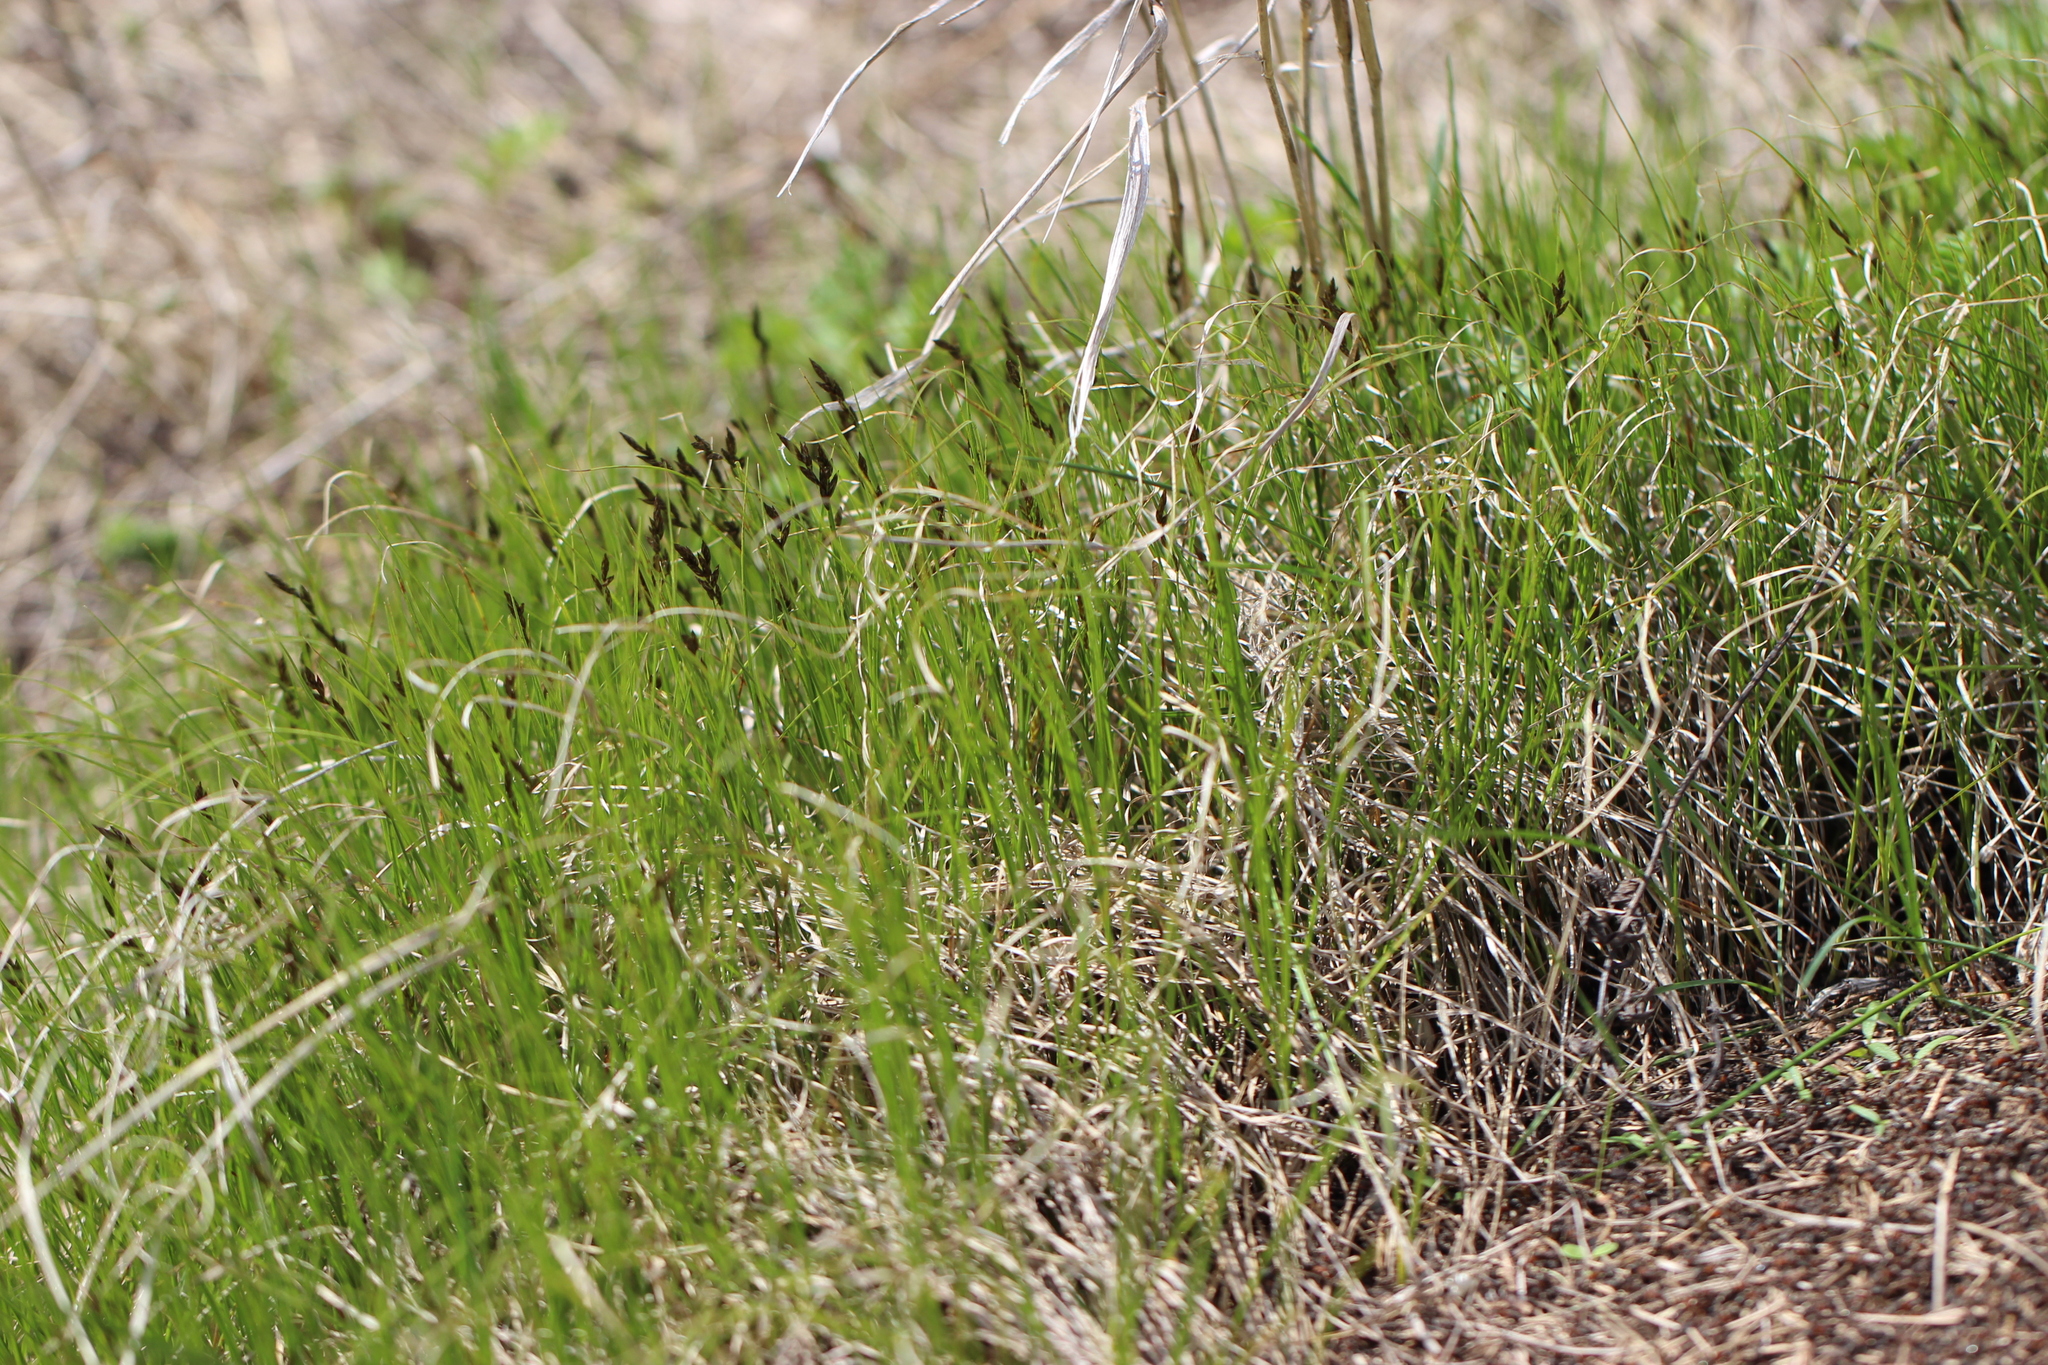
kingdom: Plantae
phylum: Tracheophyta
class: Liliopsida
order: Poales
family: Cyperaceae
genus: Carex
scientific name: Carex praecox
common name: Early sedge
